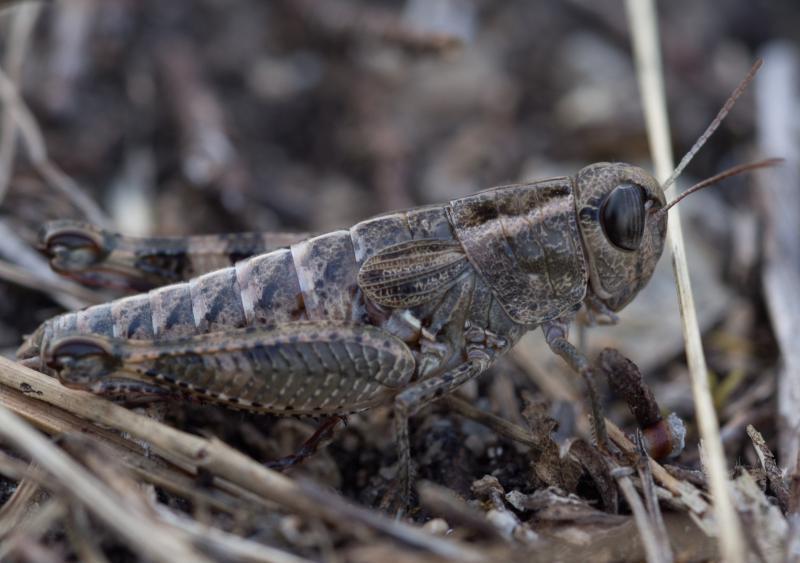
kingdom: Animalia
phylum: Arthropoda
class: Insecta
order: Orthoptera
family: Acrididae
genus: Paracaloptenus
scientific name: Paracaloptenus caloptenoides
